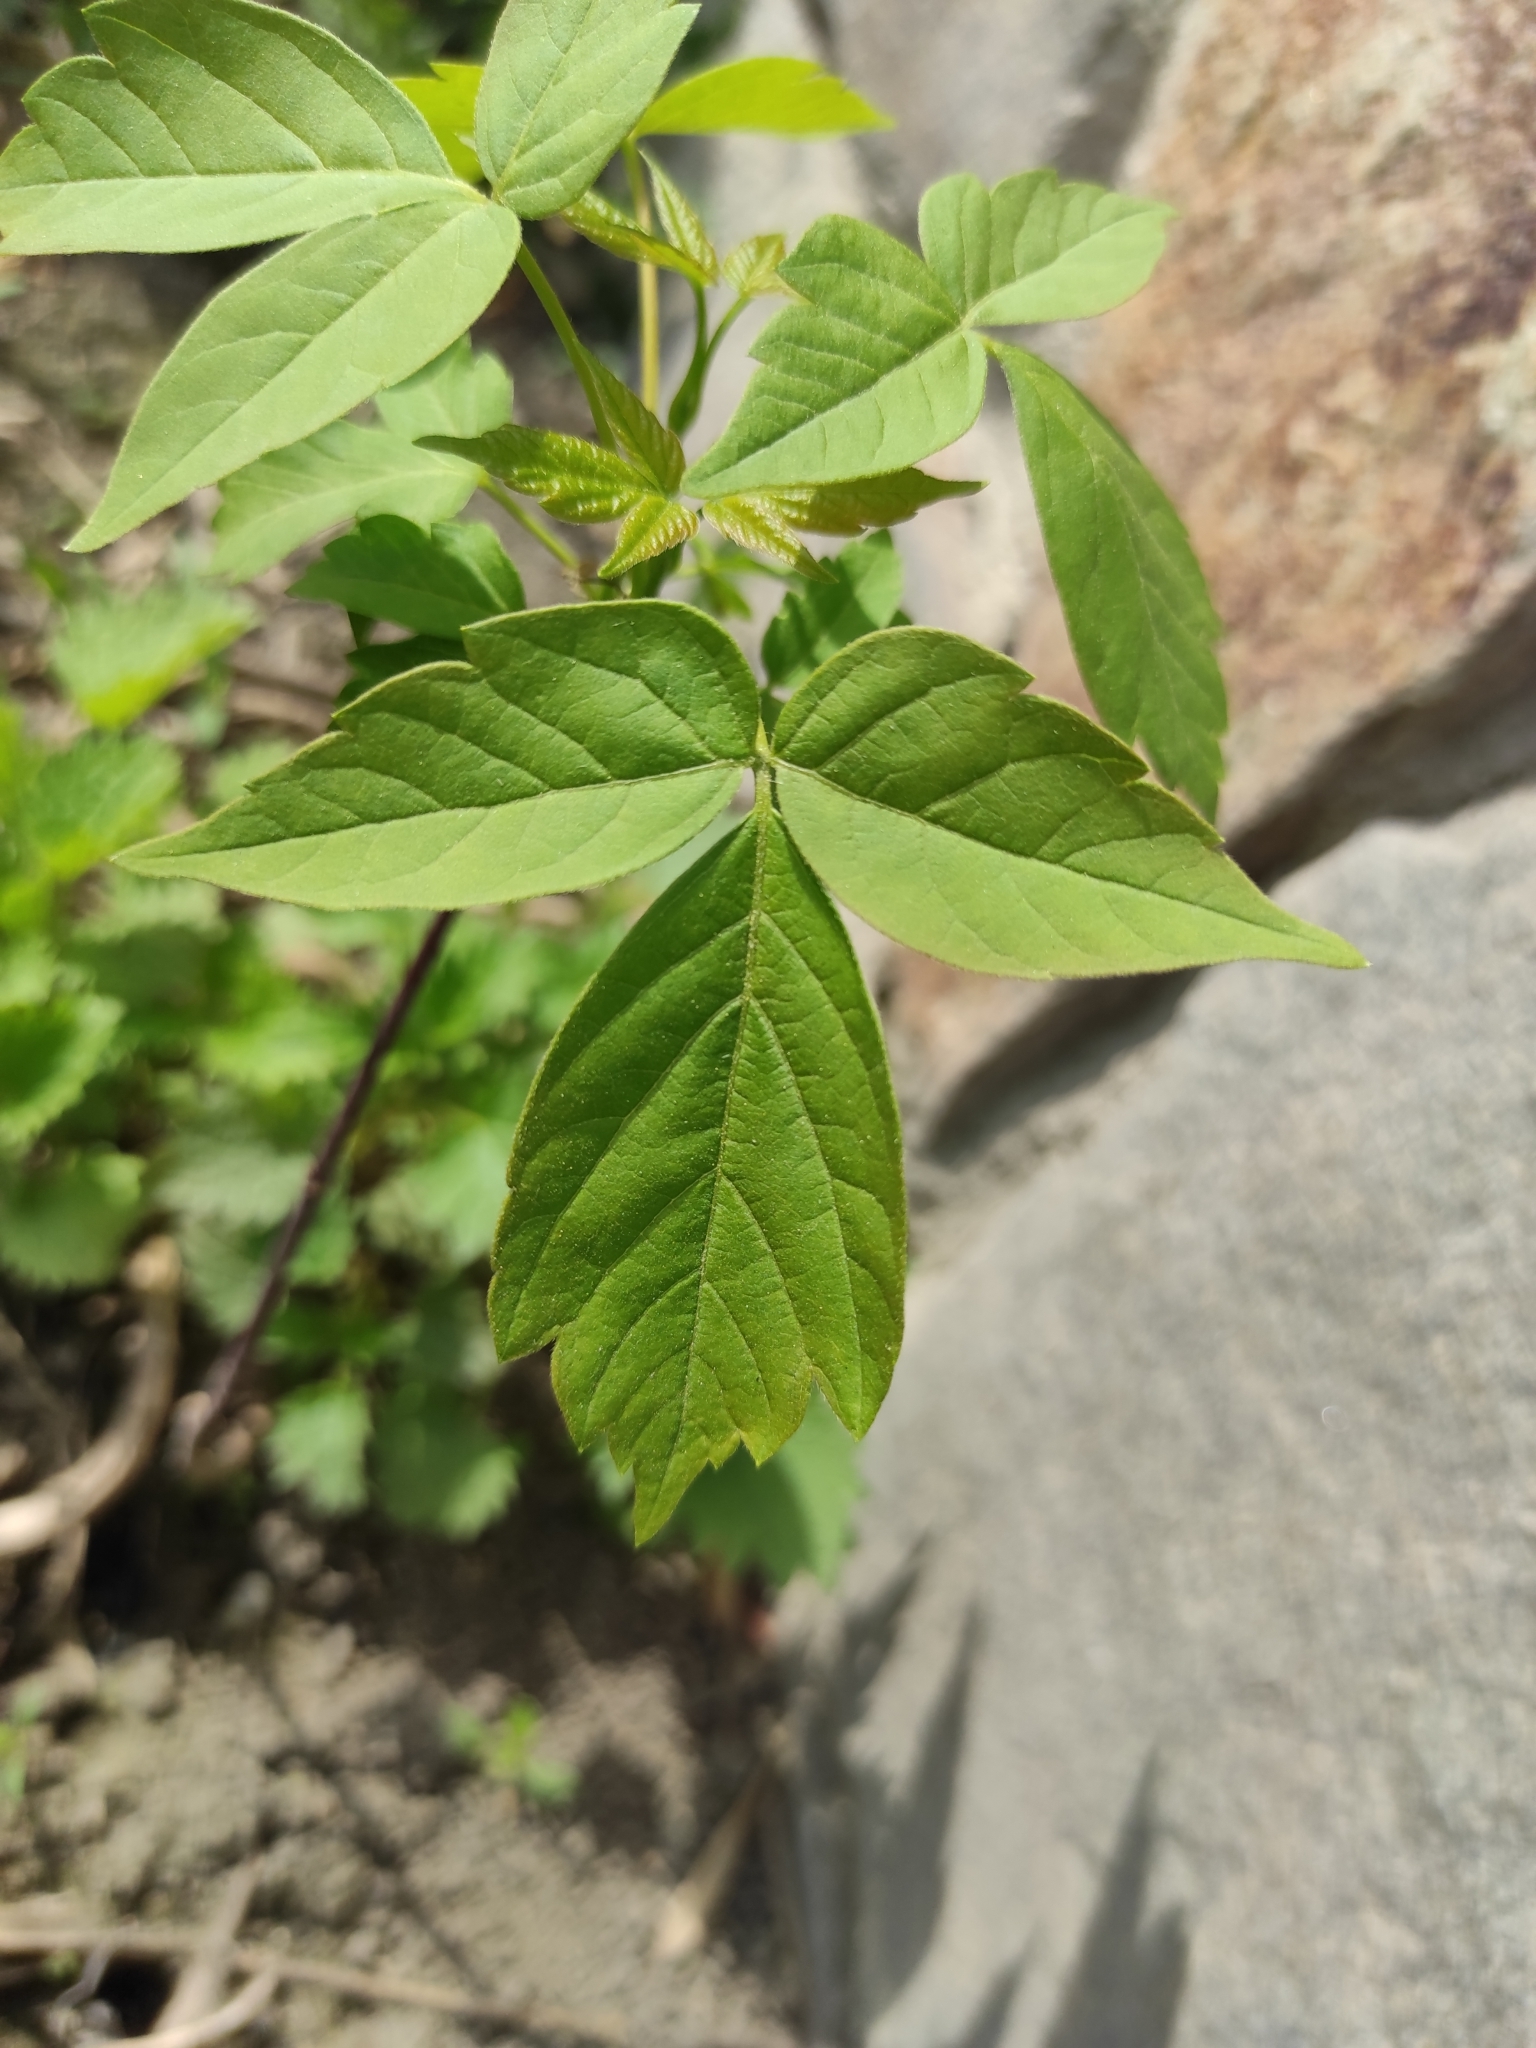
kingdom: Plantae
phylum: Tracheophyta
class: Magnoliopsida
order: Sapindales
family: Sapindaceae
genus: Acer
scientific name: Acer negundo
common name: Ashleaf maple
